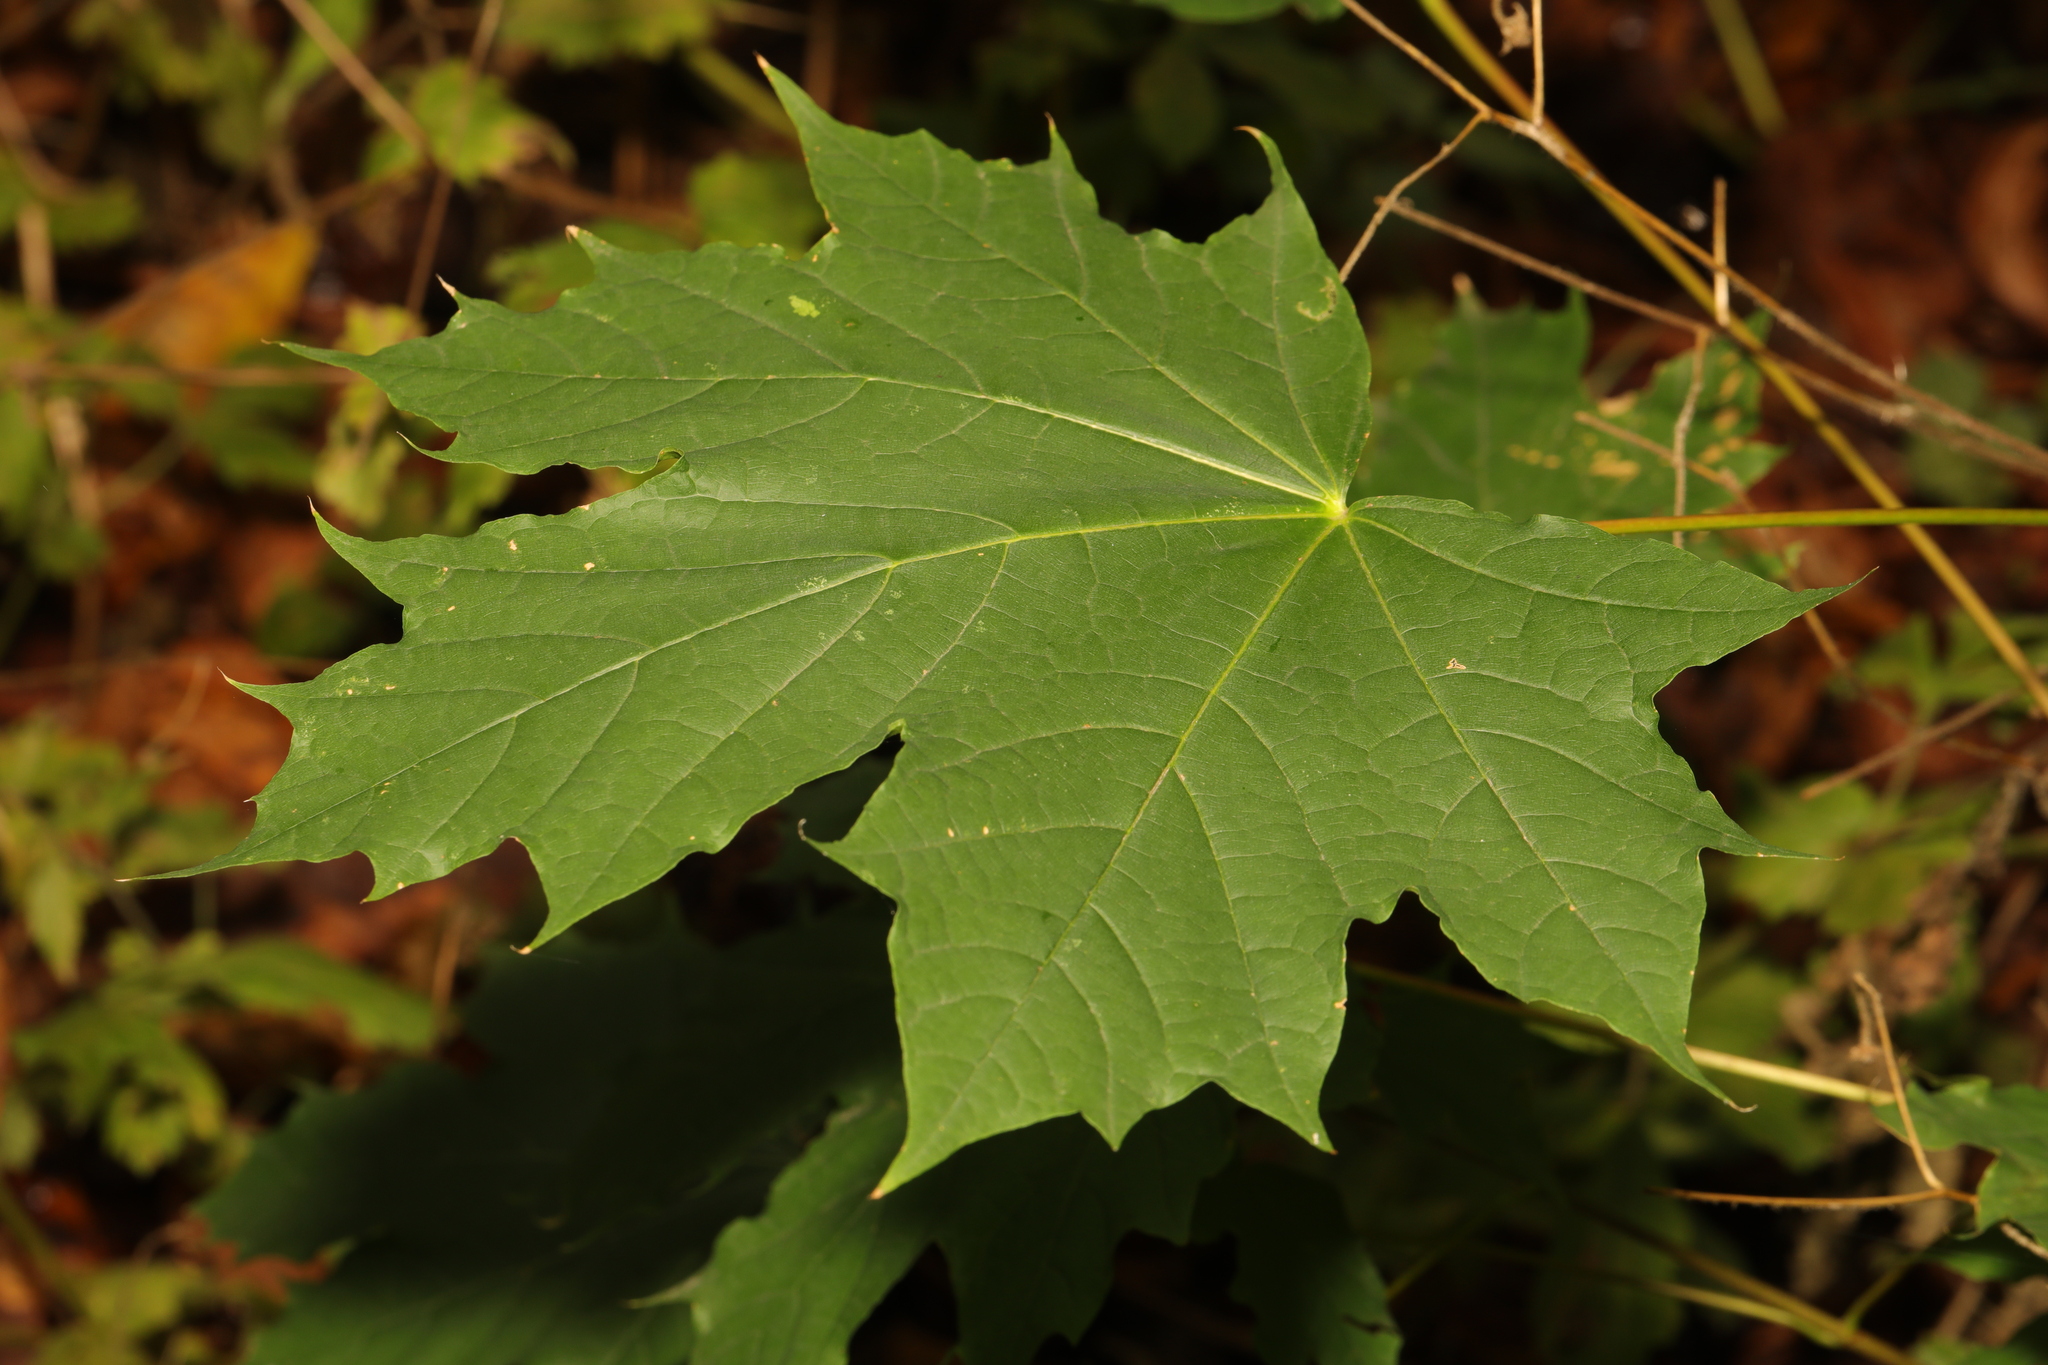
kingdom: Plantae
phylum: Tracheophyta
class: Magnoliopsida
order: Sapindales
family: Sapindaceae
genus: Acer
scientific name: Acer platanoides
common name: Norway maple
